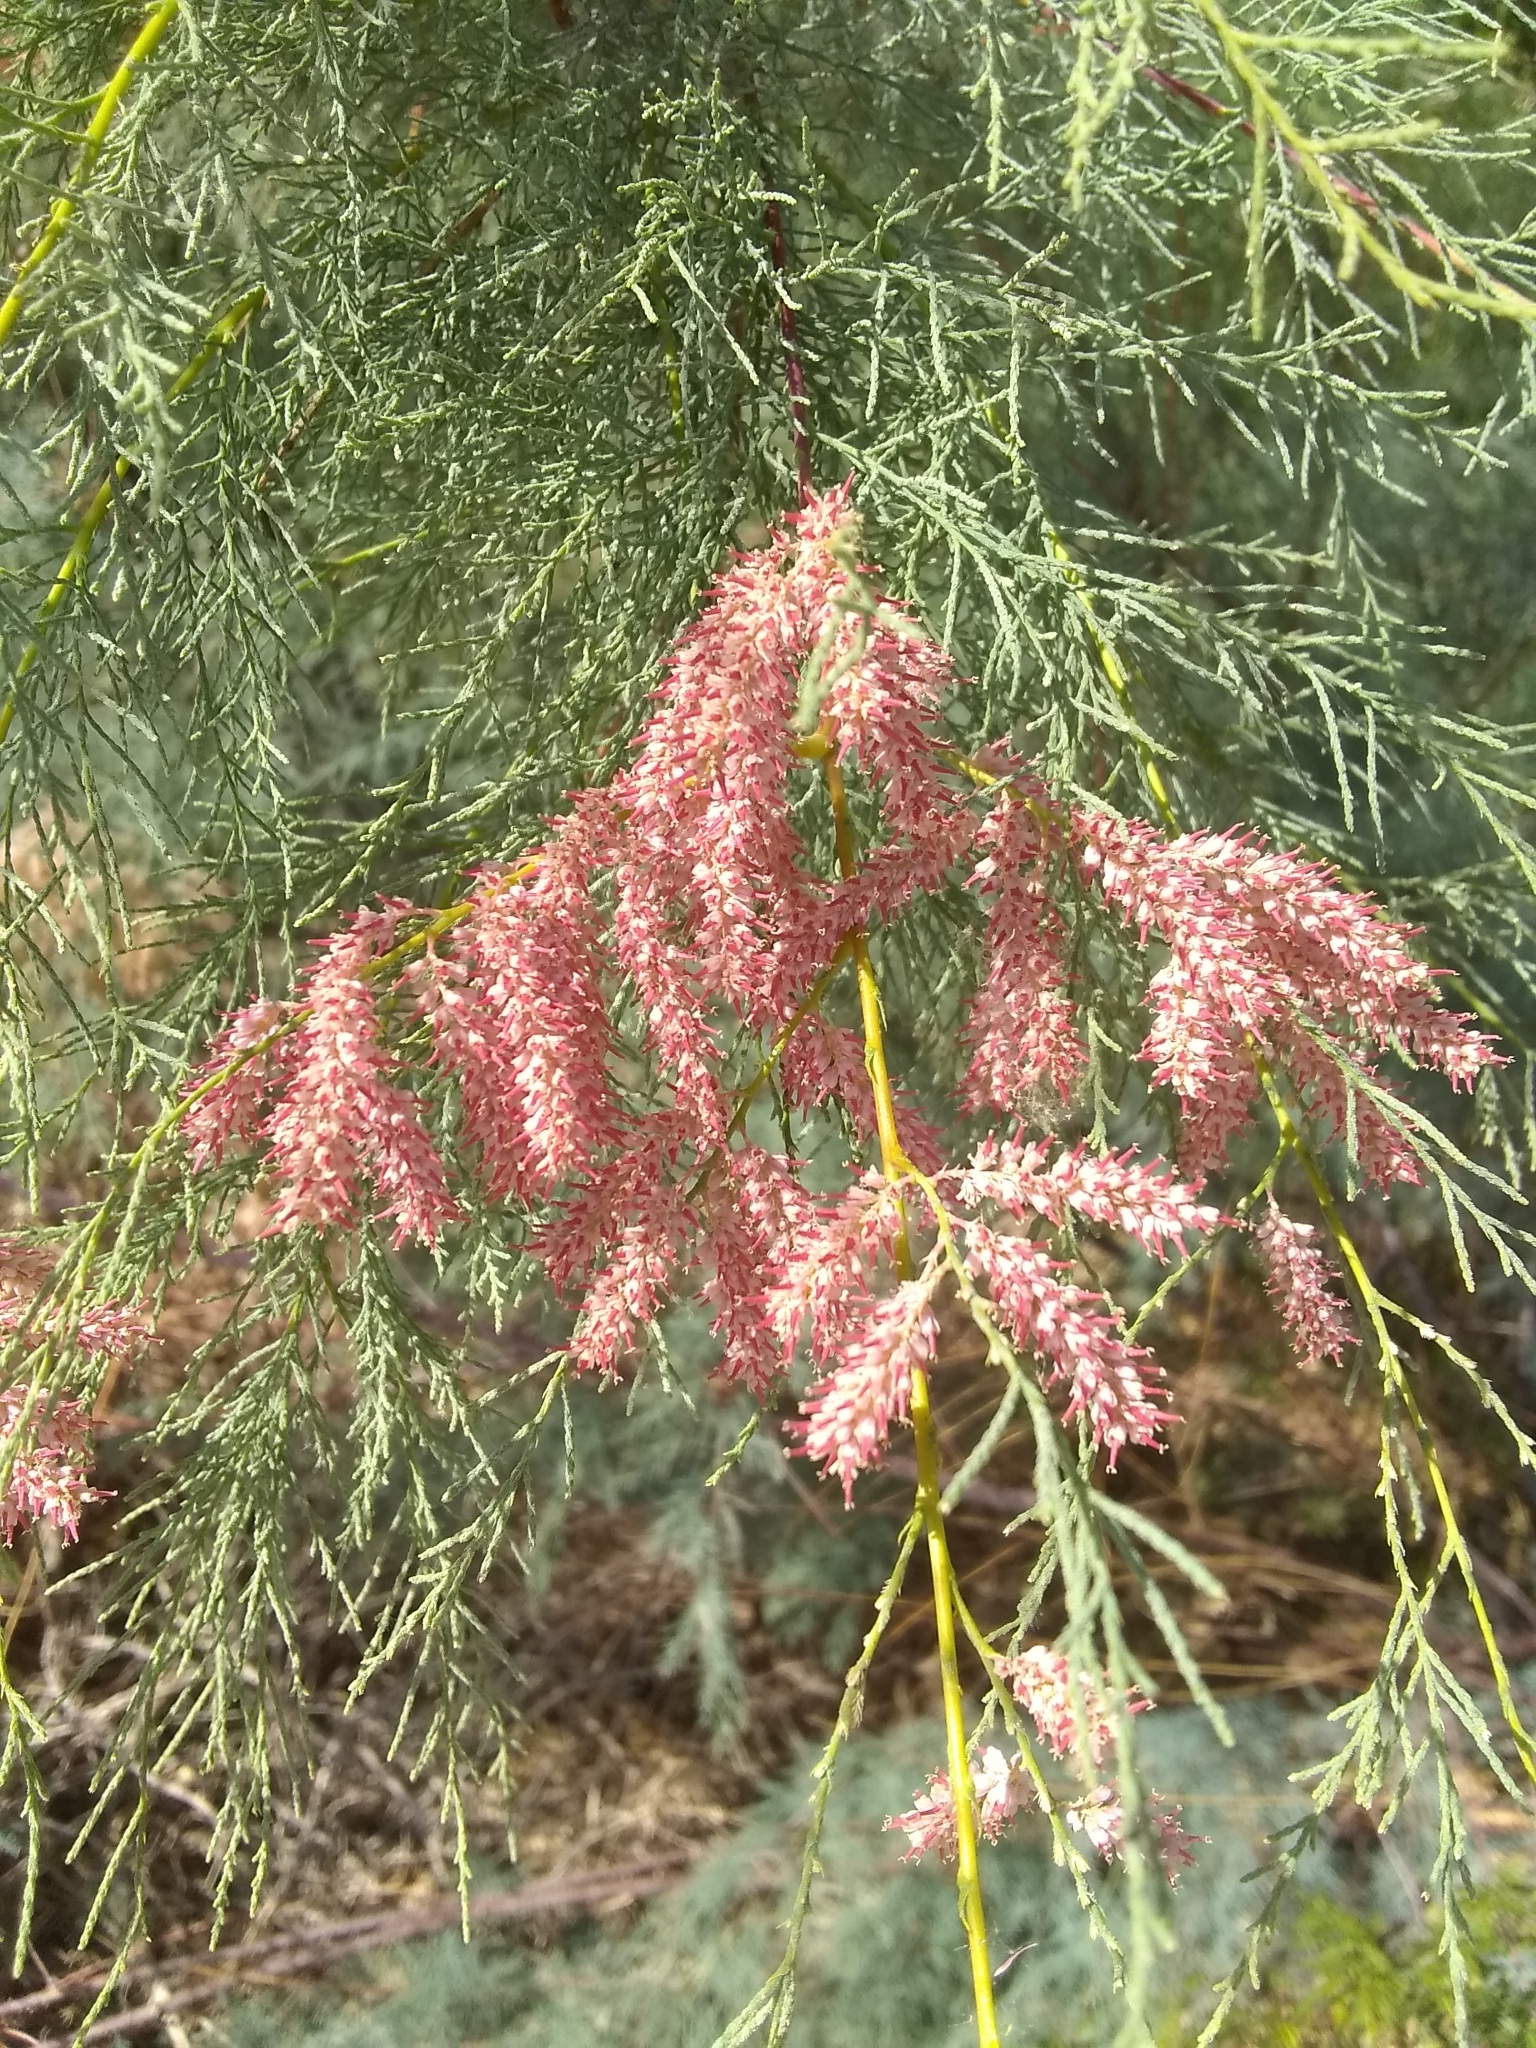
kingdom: Plantae
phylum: Tracheophyta
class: Magnoliopsida
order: Caryophyllales
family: Tamaricaceae
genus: Tamarix
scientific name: Tamarix
